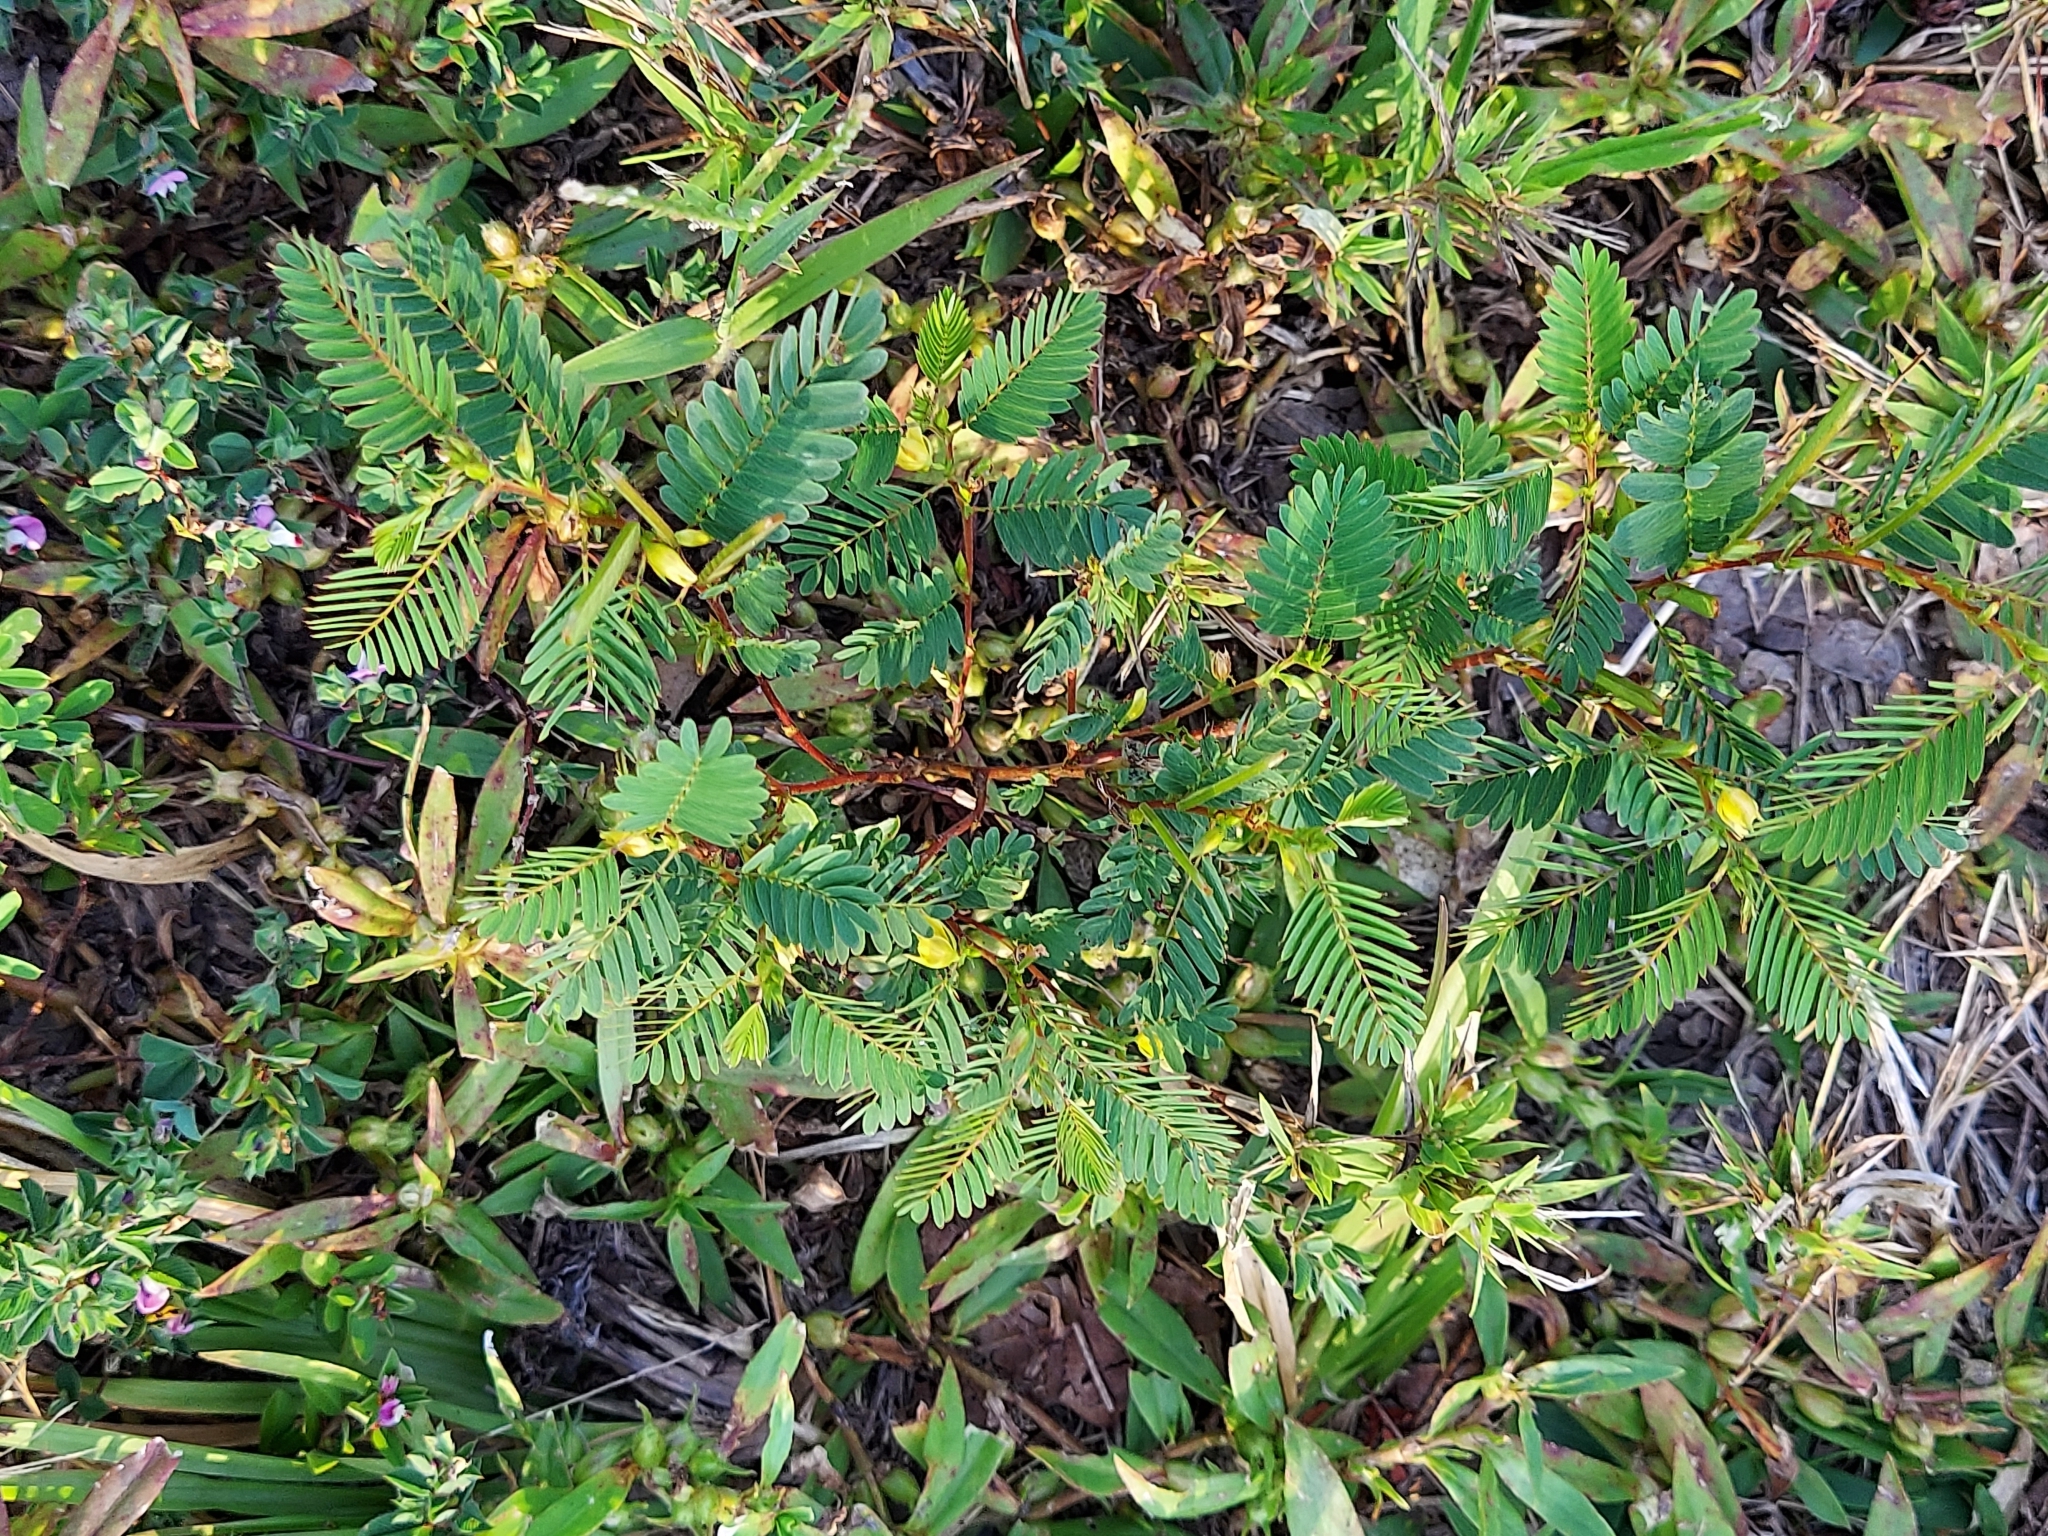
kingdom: Plantae
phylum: Tracheophyta
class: Magnoliopsida
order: Fabales
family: Fabaceae
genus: Chamaecrista
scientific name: Chamaecrista nictitans
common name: Sensitive cassia
